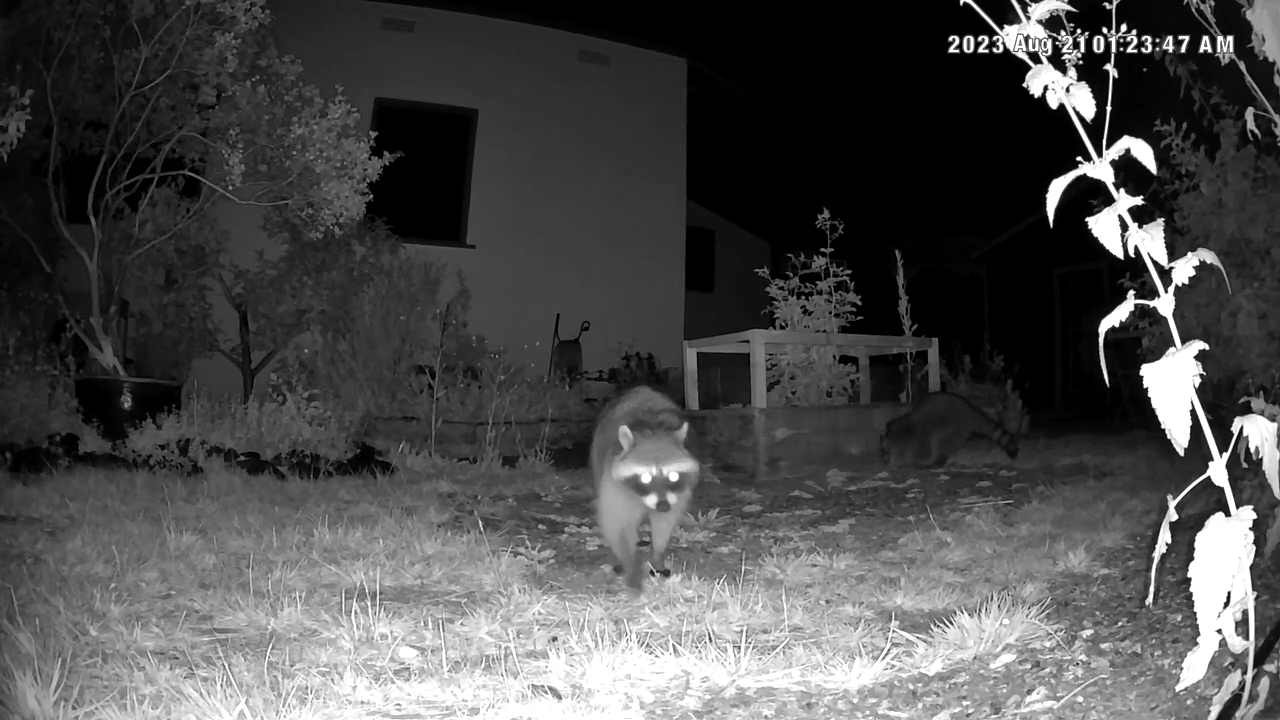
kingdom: Animalia
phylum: Chordata
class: Mammalia
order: Carnivora
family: Procyonidae
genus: Procyon
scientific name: Procyon lotor
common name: Raccoon
